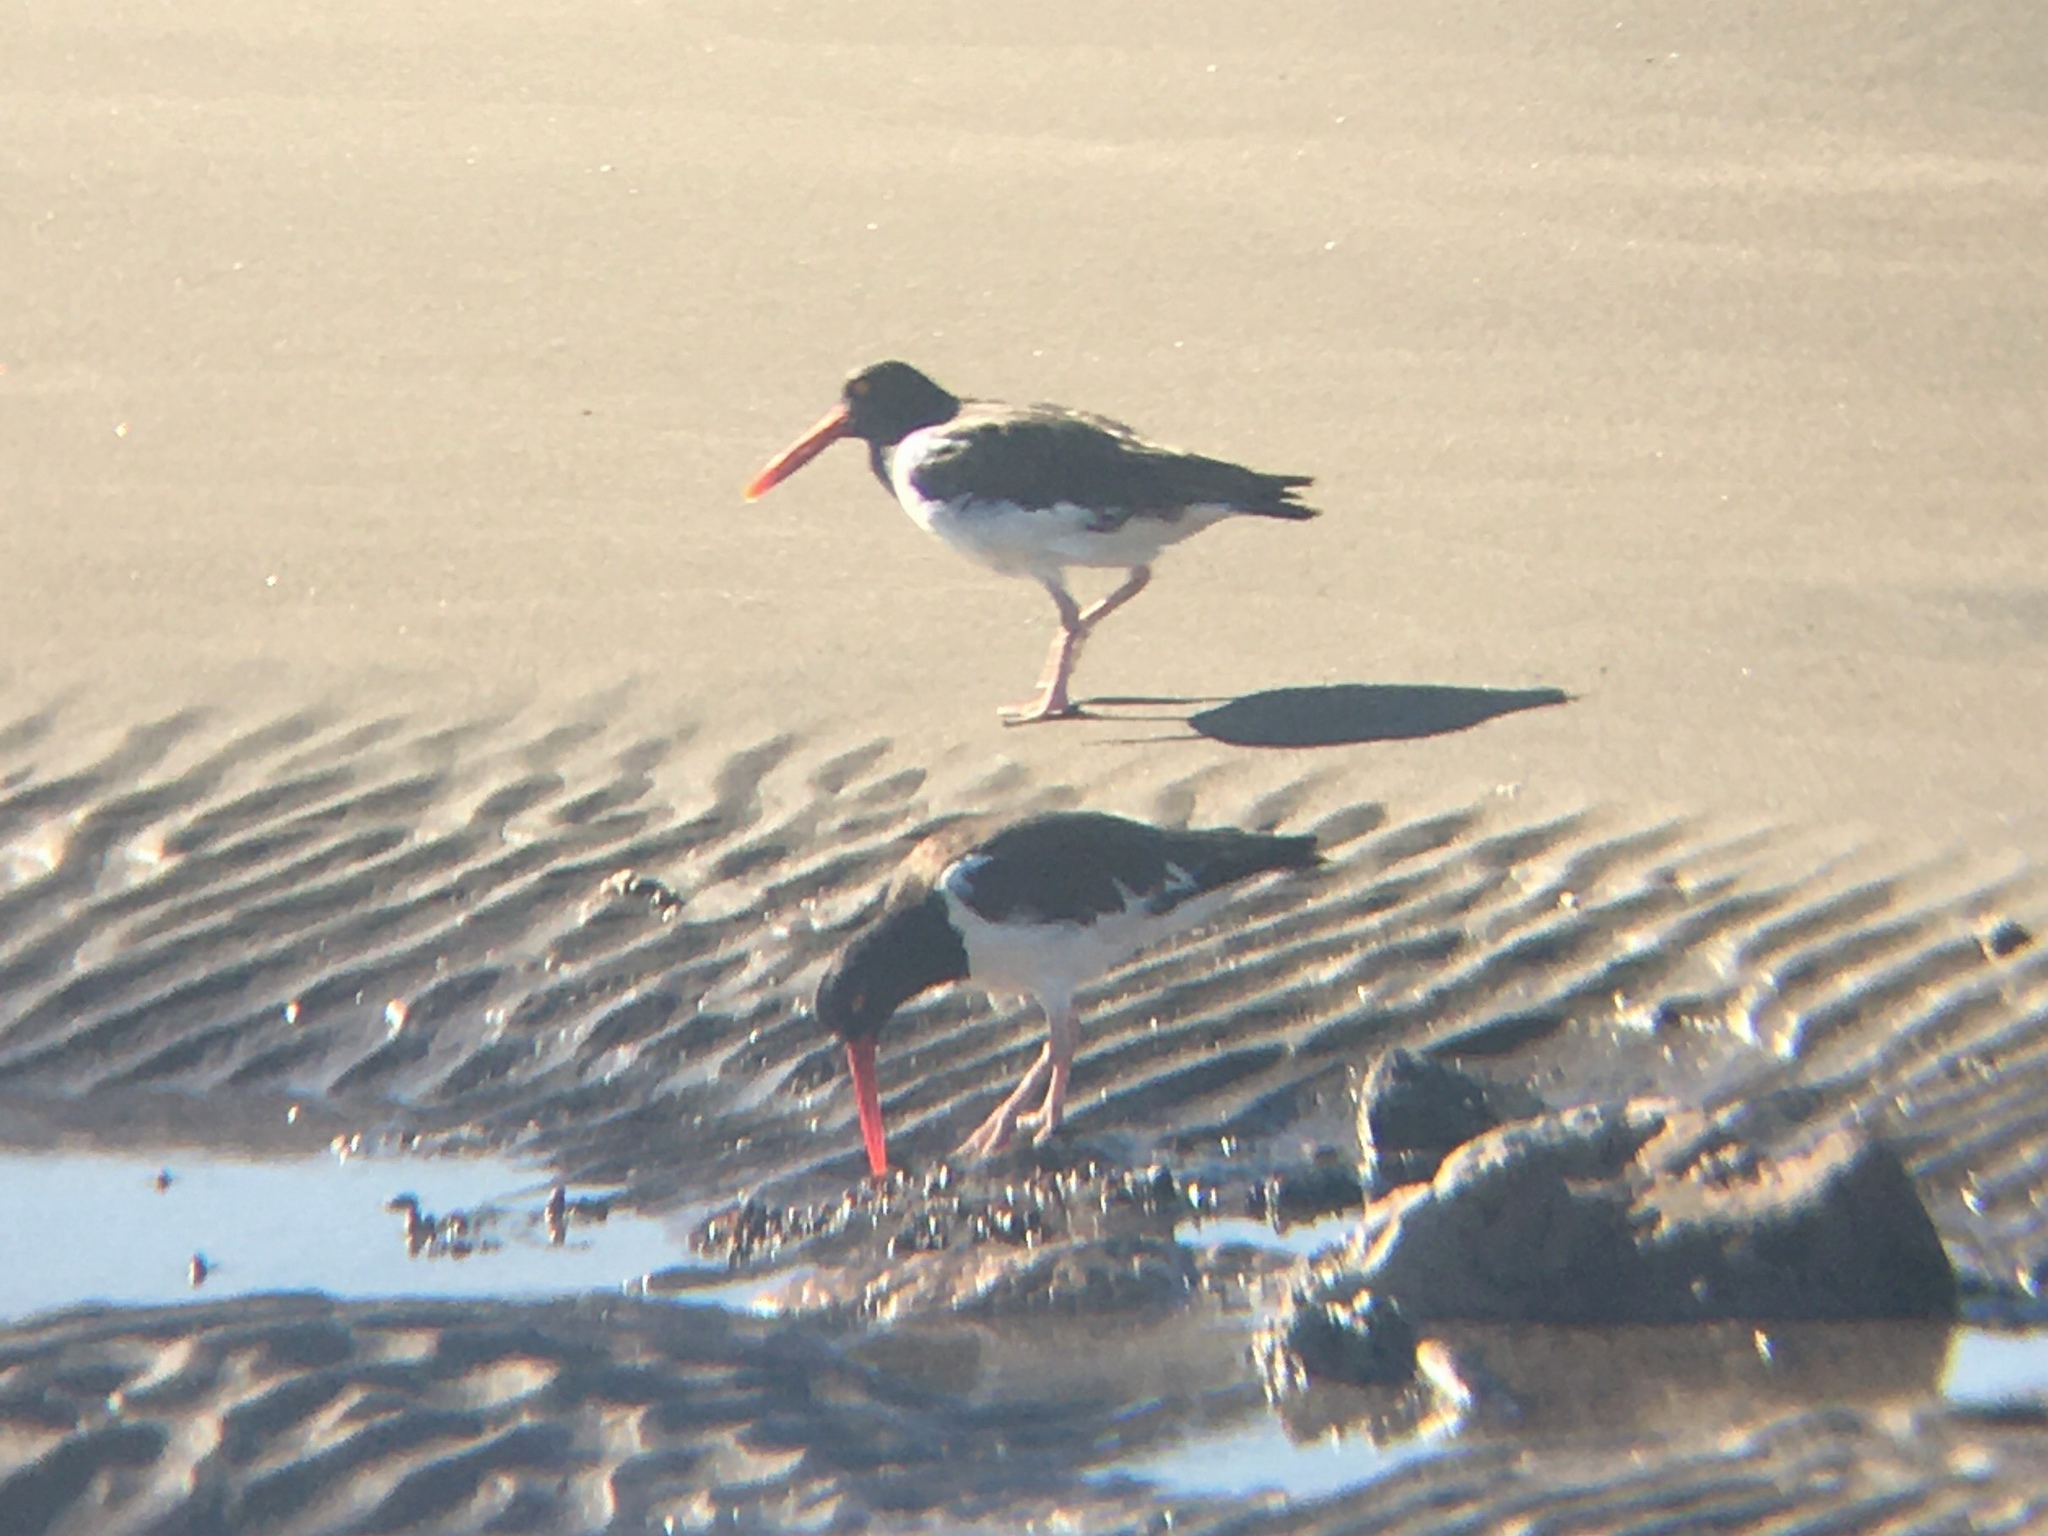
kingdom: Animalia
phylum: Chordata
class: Aves
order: Charadriiformes
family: Haematopodidae
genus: Haematopus
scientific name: Haematopus palliatus
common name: American oystercatcher
